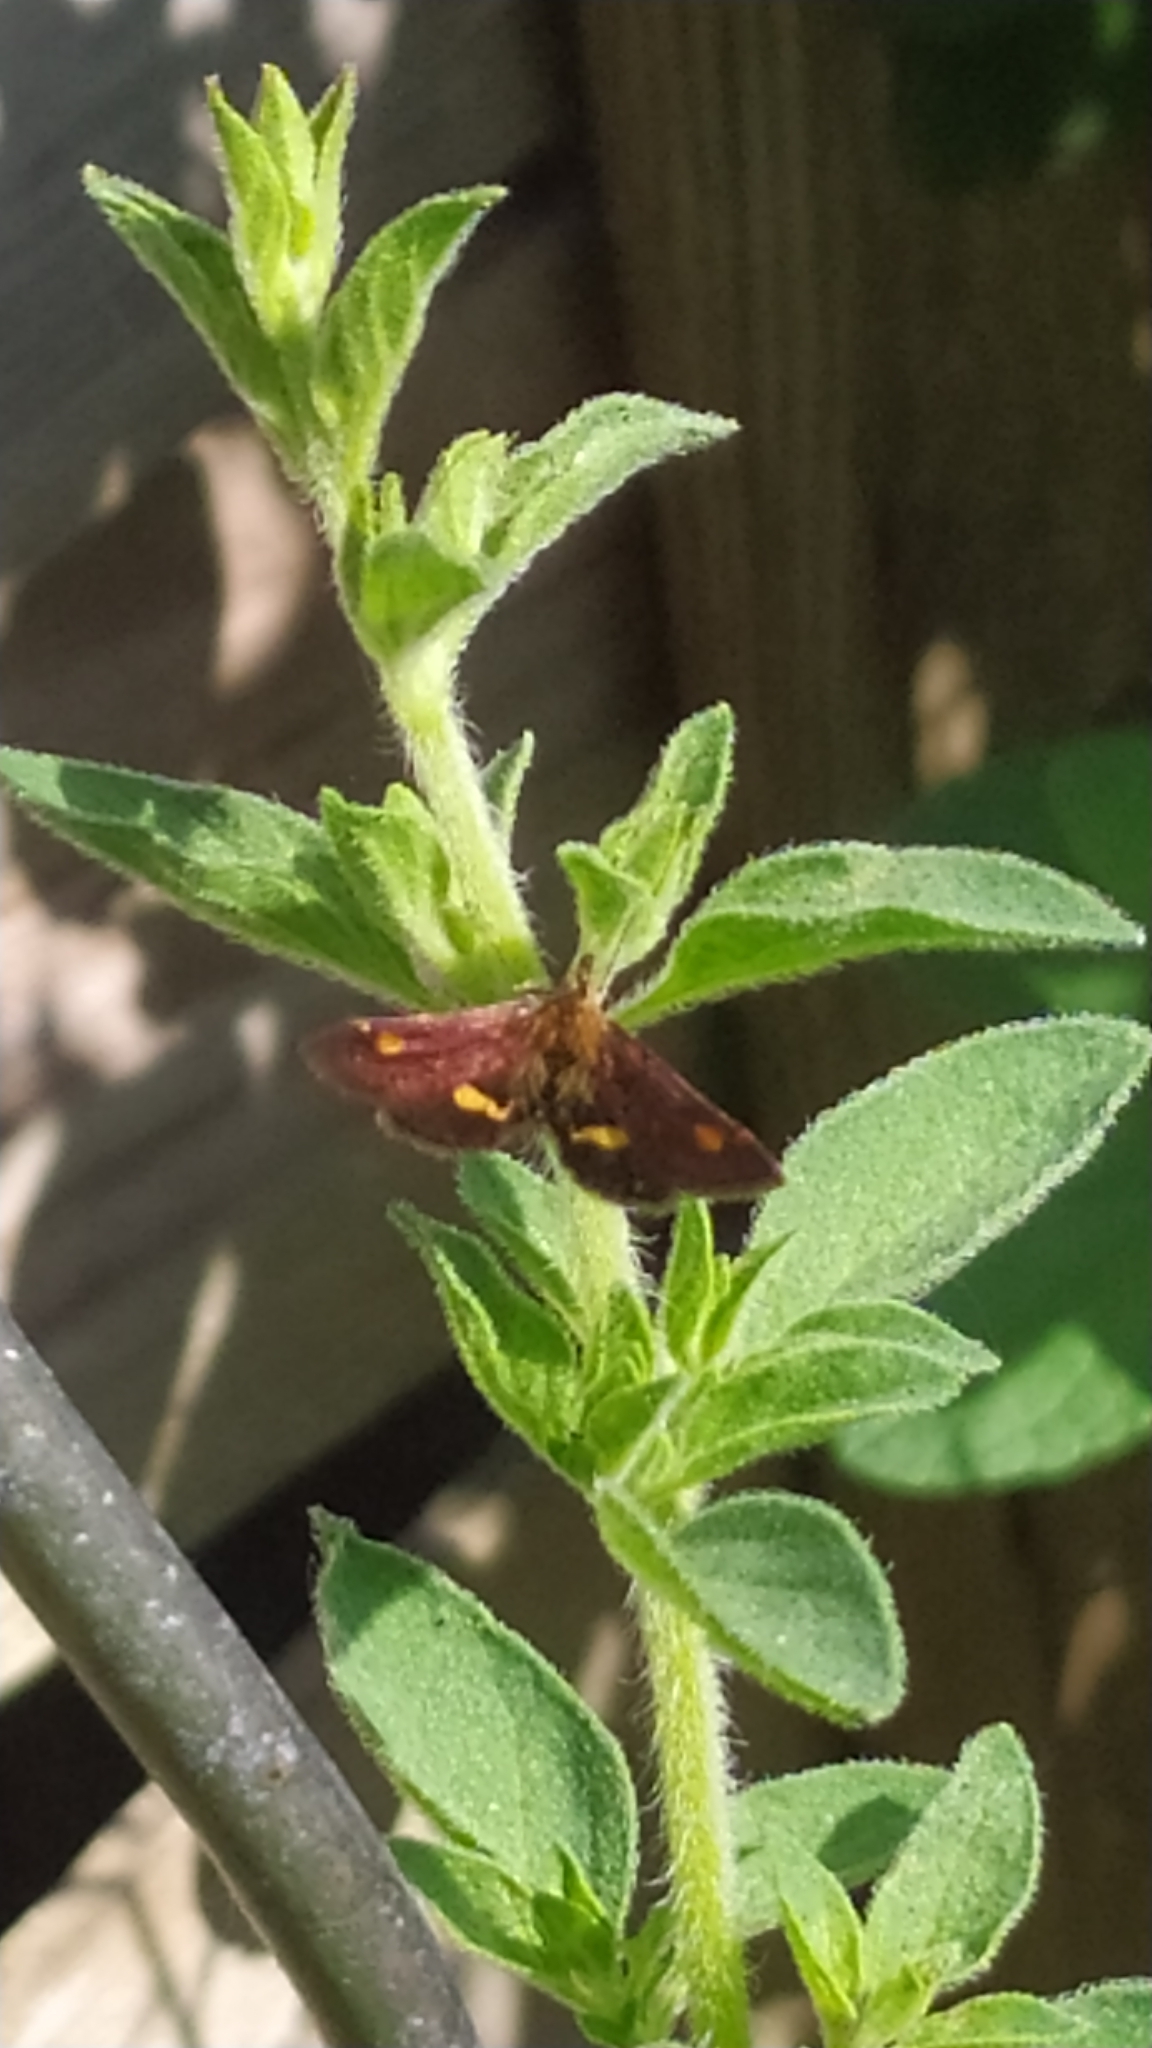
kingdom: Animalia
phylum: Arthropoda
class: Insecta
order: Lepidoptera
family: Crambidae
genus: Pyrausta
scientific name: Pyrausta aurata
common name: Small purple & gold
